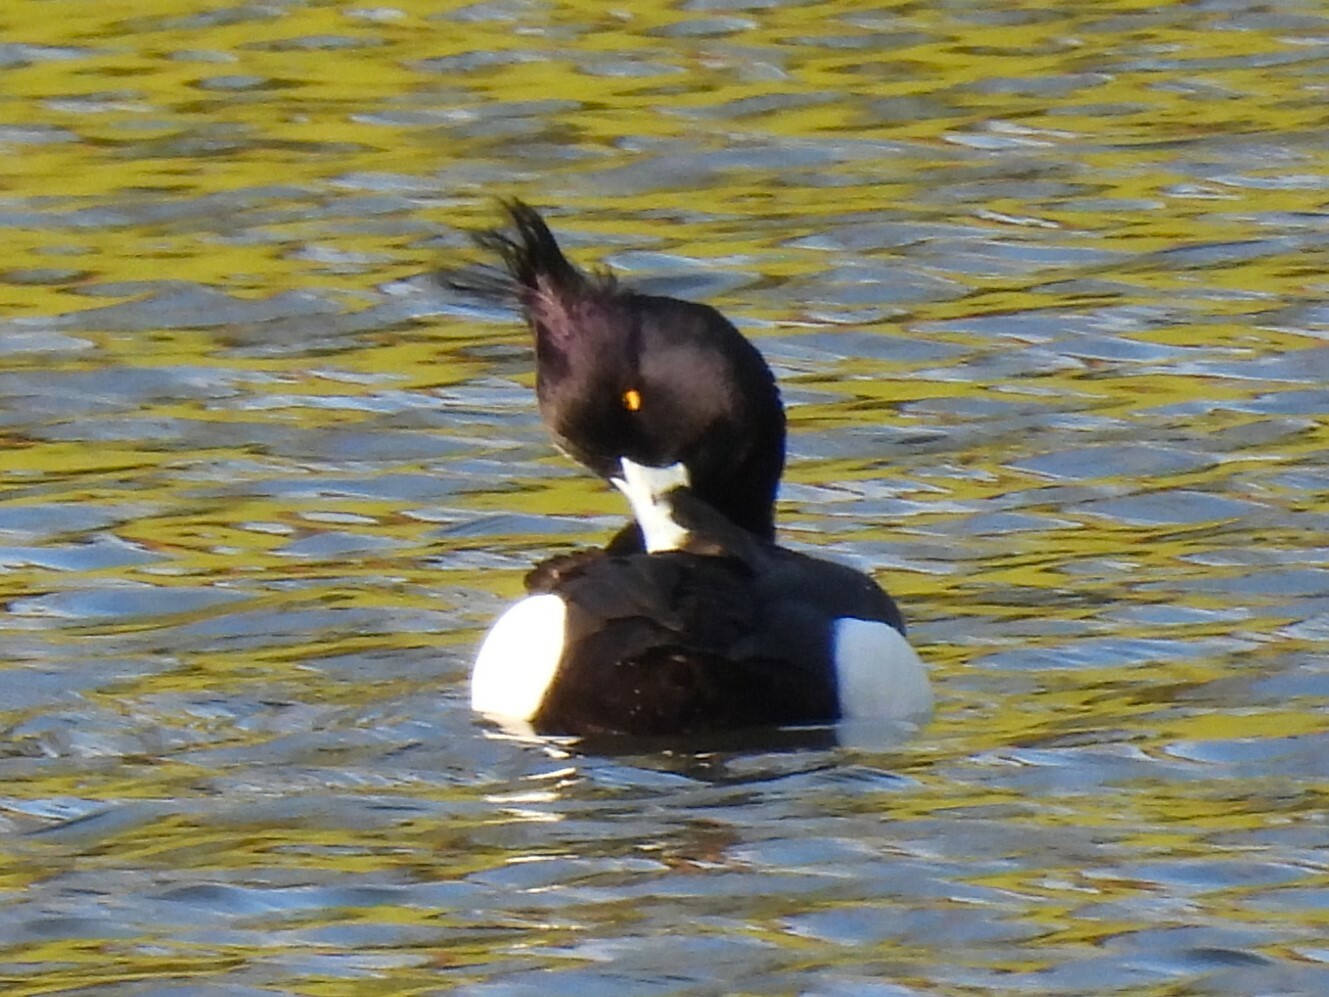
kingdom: Animalia
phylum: Chordata
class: Aves
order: Anseriformes
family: Anatidae
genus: Aythya
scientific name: Aythya fuligula
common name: Tufted duck
